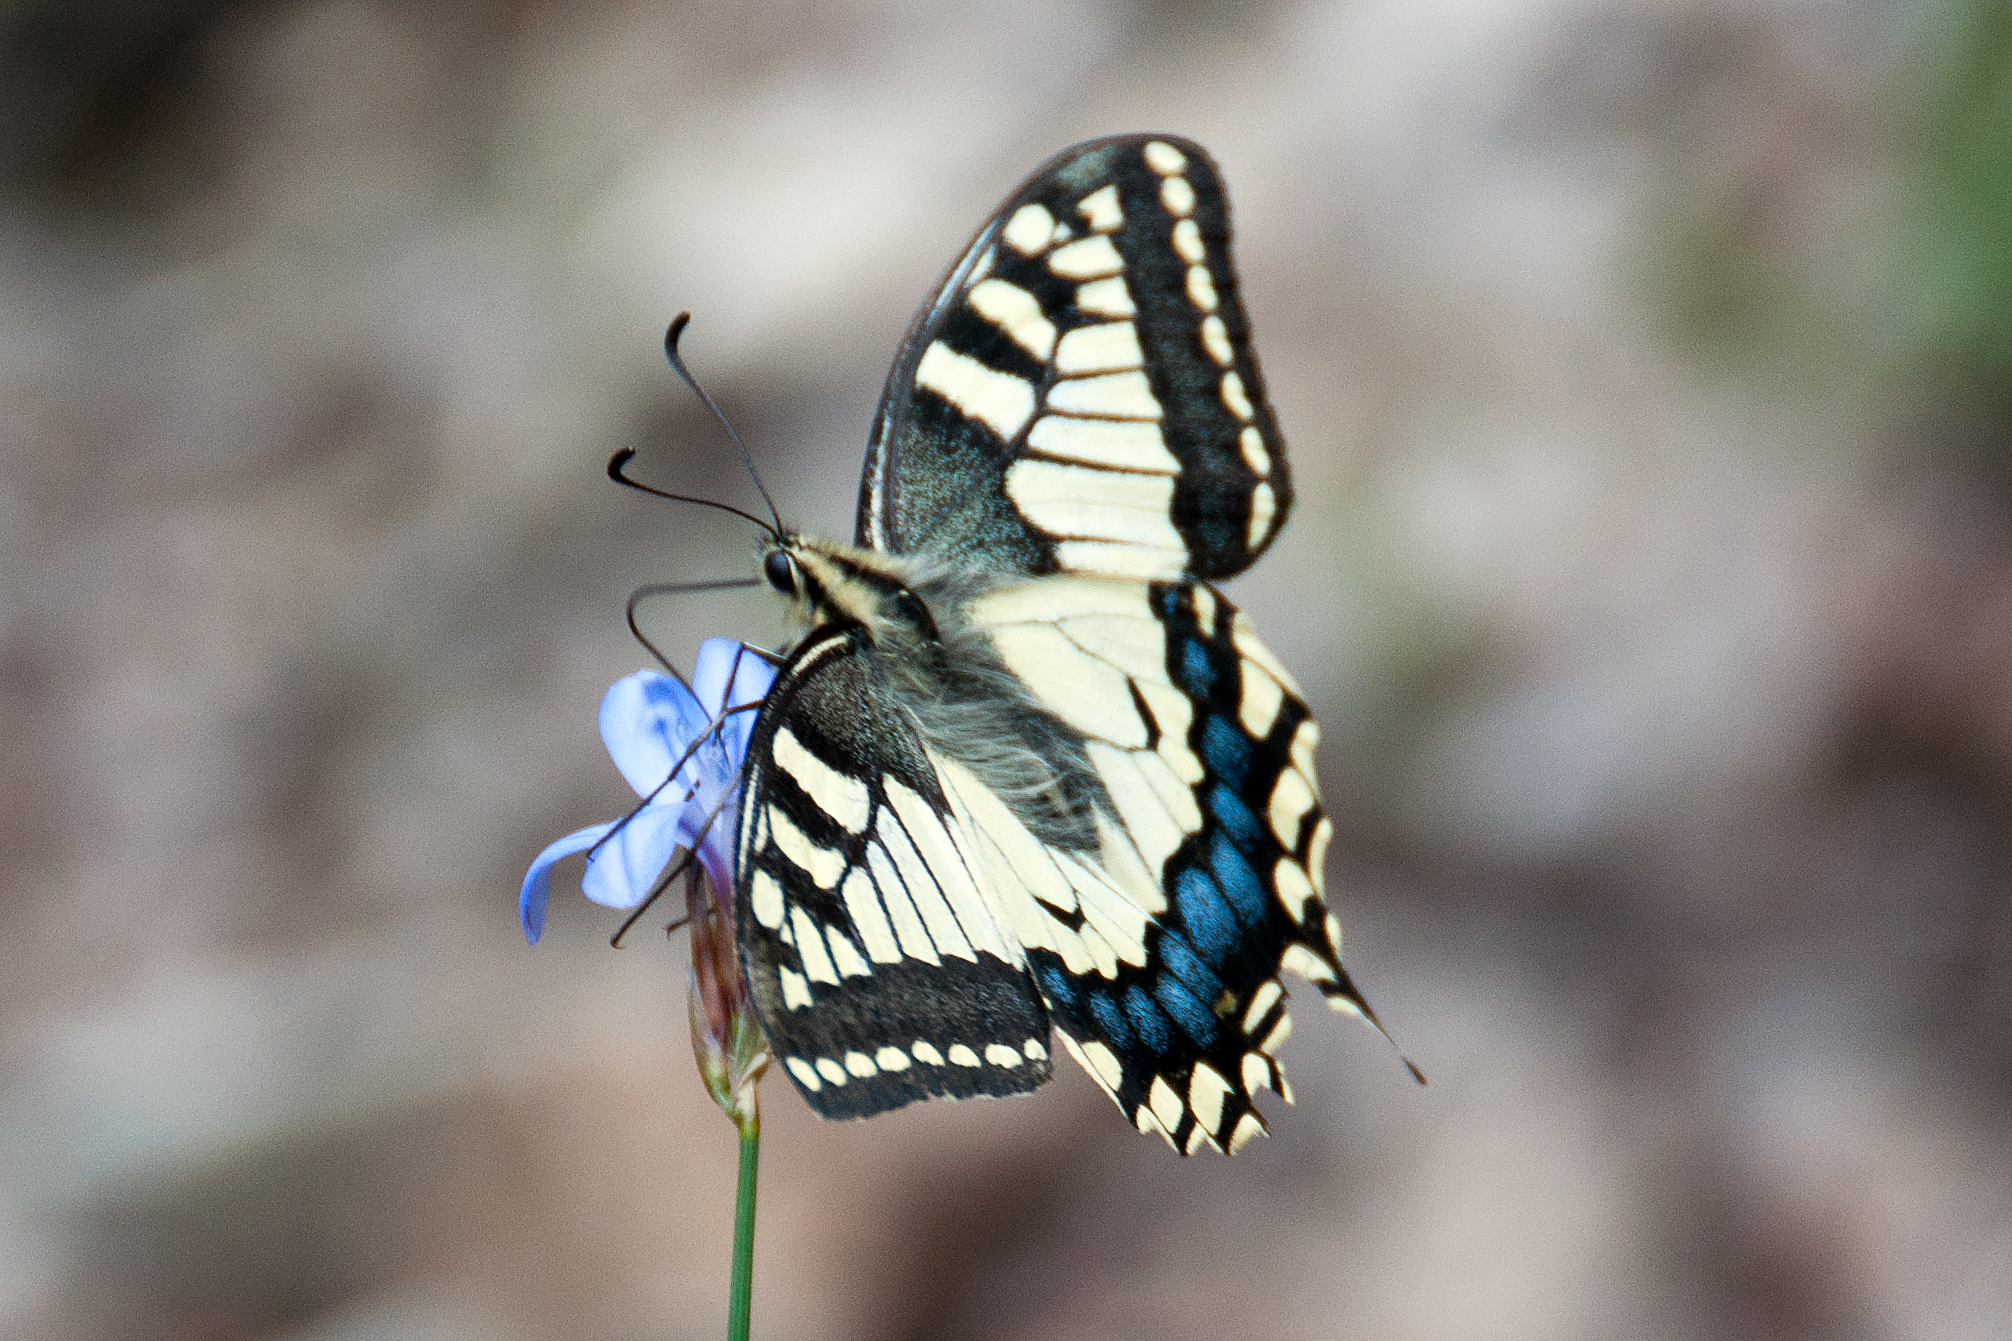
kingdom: Animalia
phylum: Arthropoda
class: Insecta
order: Lepidoptera
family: Papilionidae
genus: Papilio
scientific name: Papilio machaon
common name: Swallowtail
